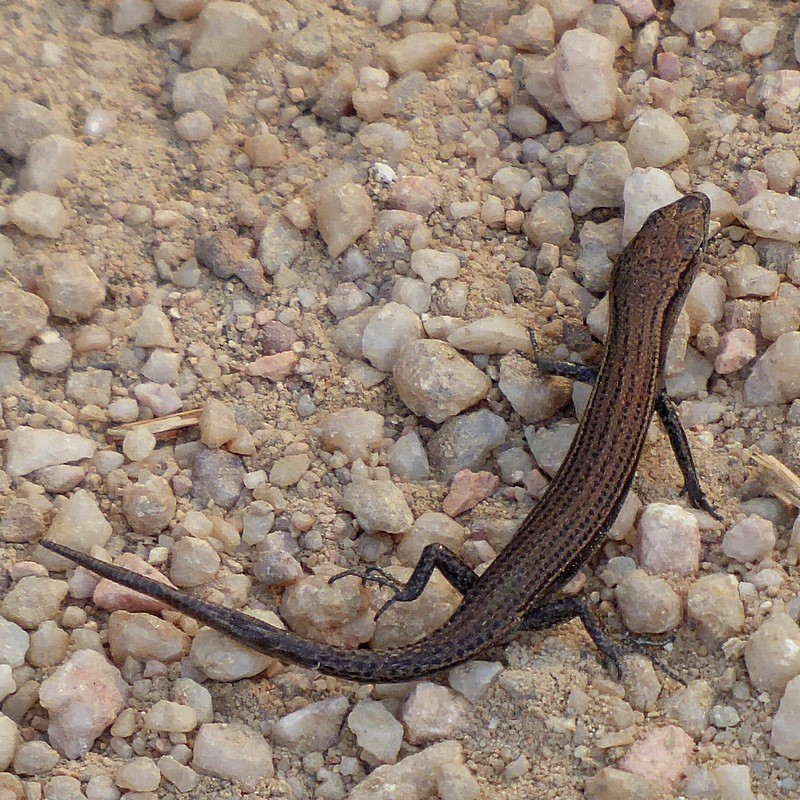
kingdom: Animalia
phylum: Chordata
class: Squamata
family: Scincidae
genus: Lampropholis
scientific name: Lampropholis delicata
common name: Plague skink
